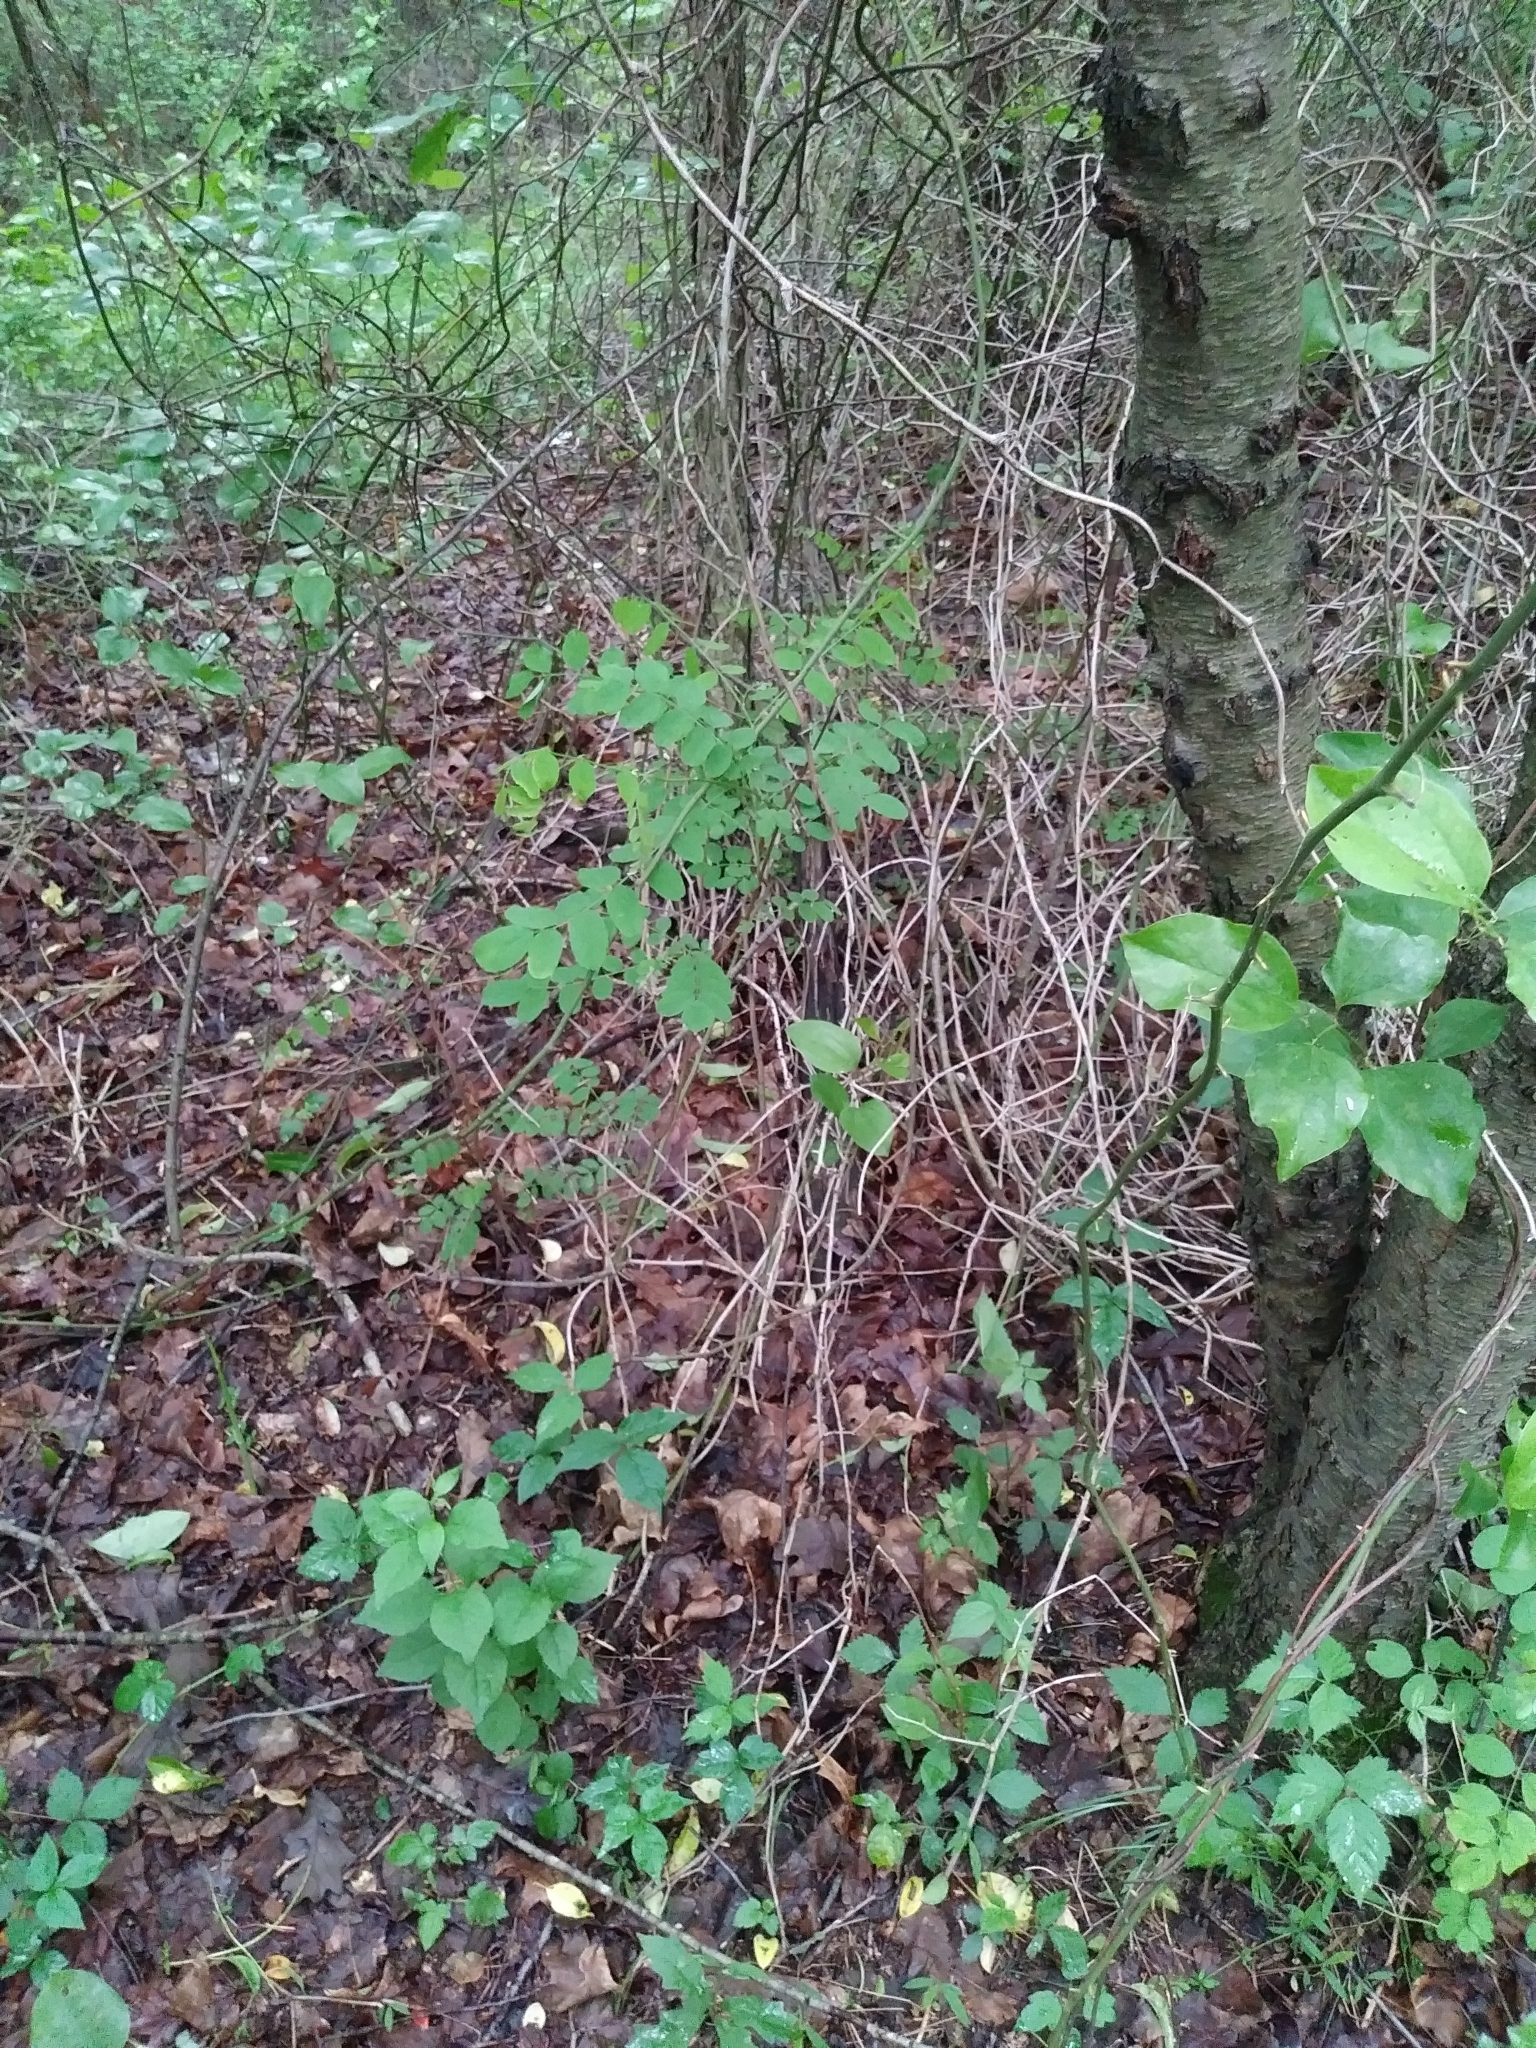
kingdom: Plantae
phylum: Tracheophyta
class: Magnoliopsida
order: Fabales
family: Fabaceae
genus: Robinia
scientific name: Robinia pseudoacacia
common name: Black locust
